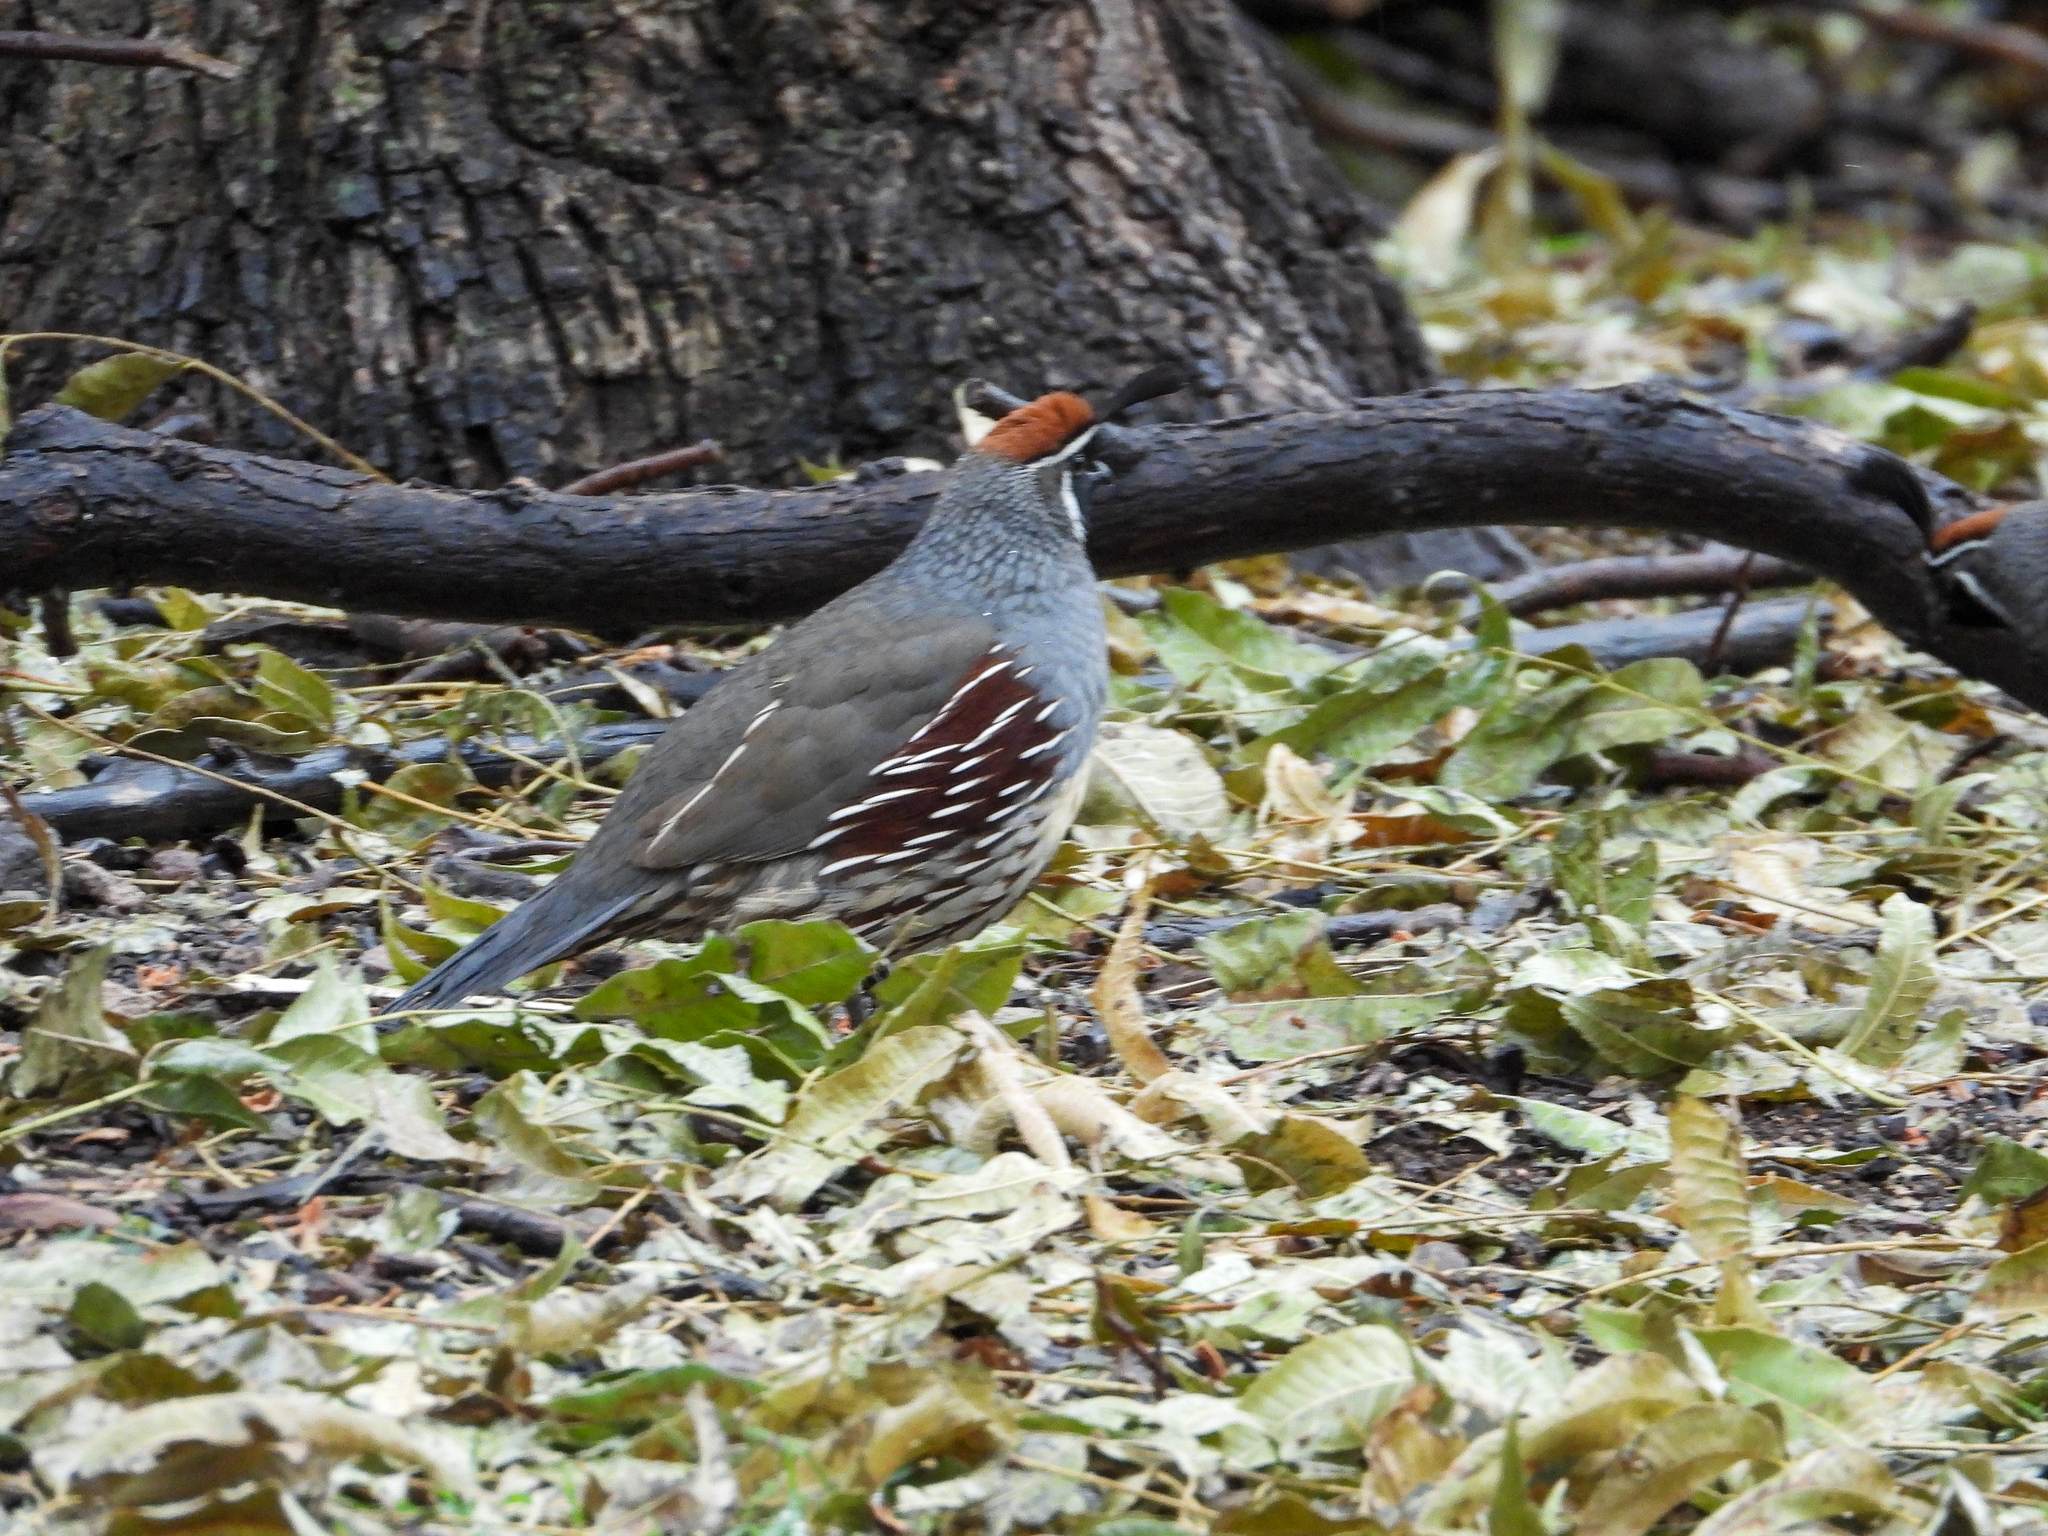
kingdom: Animalia
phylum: Chordata
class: Aves
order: Galliformes
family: Odontophoridae
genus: Callipepla
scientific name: Callipepla gambelii
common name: Gambel's quail
